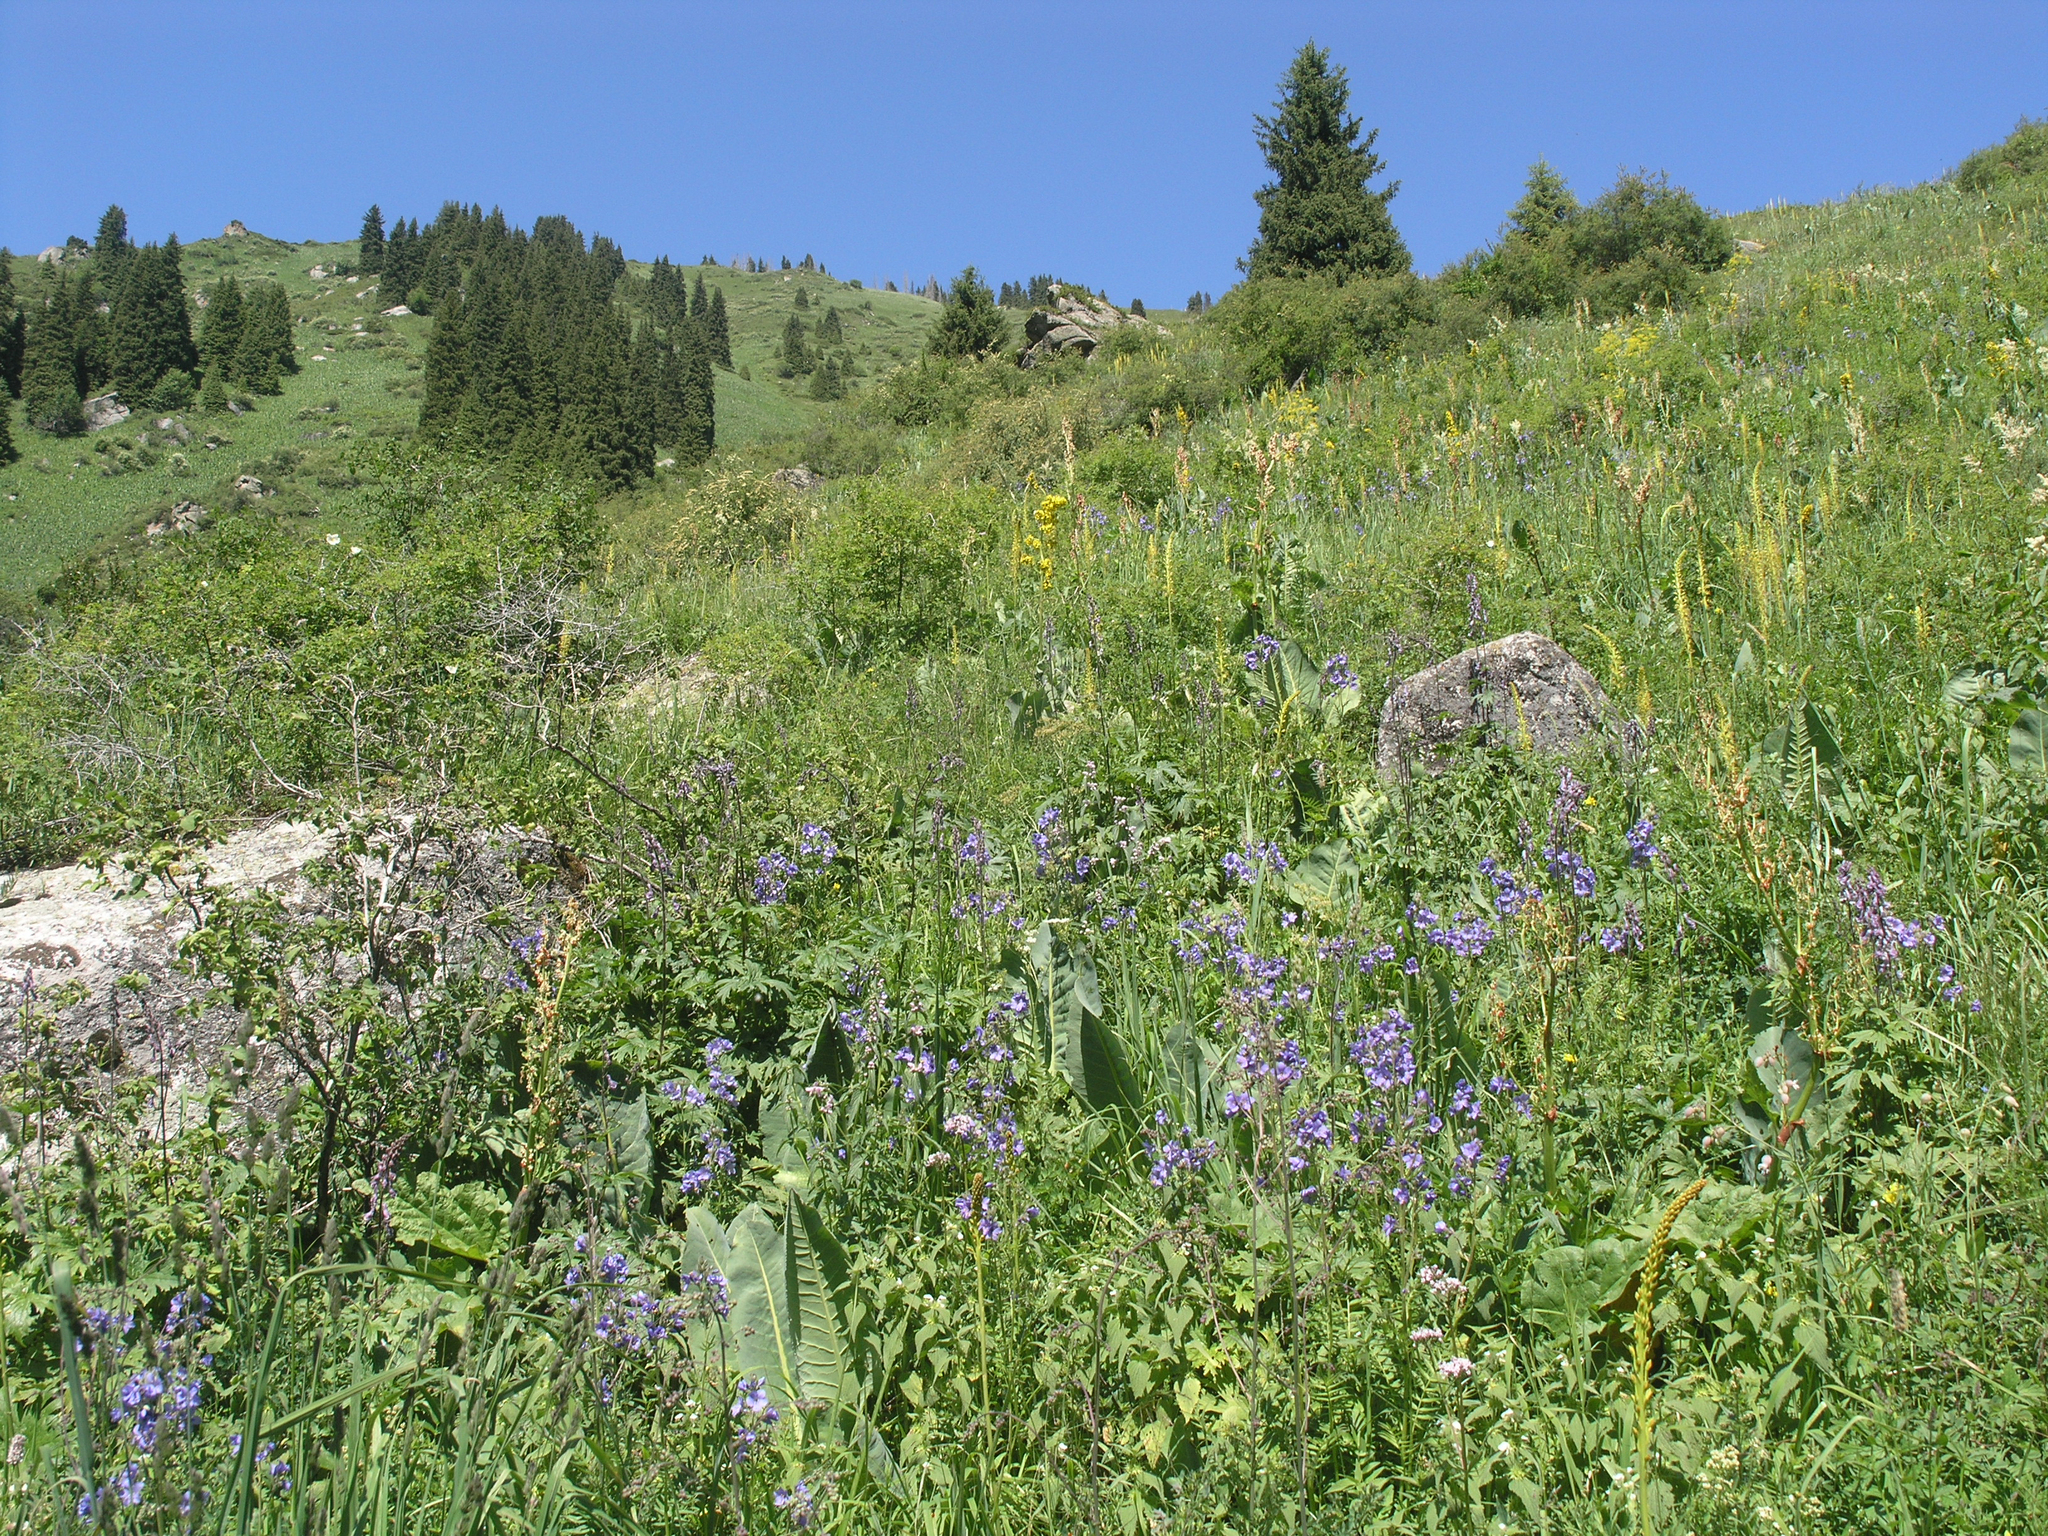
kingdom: Plantae
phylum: Tracheophyta
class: Magnoliopsida
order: Asterales
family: Asteraceae
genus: Ligularia
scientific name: Ligularia heterophylla
